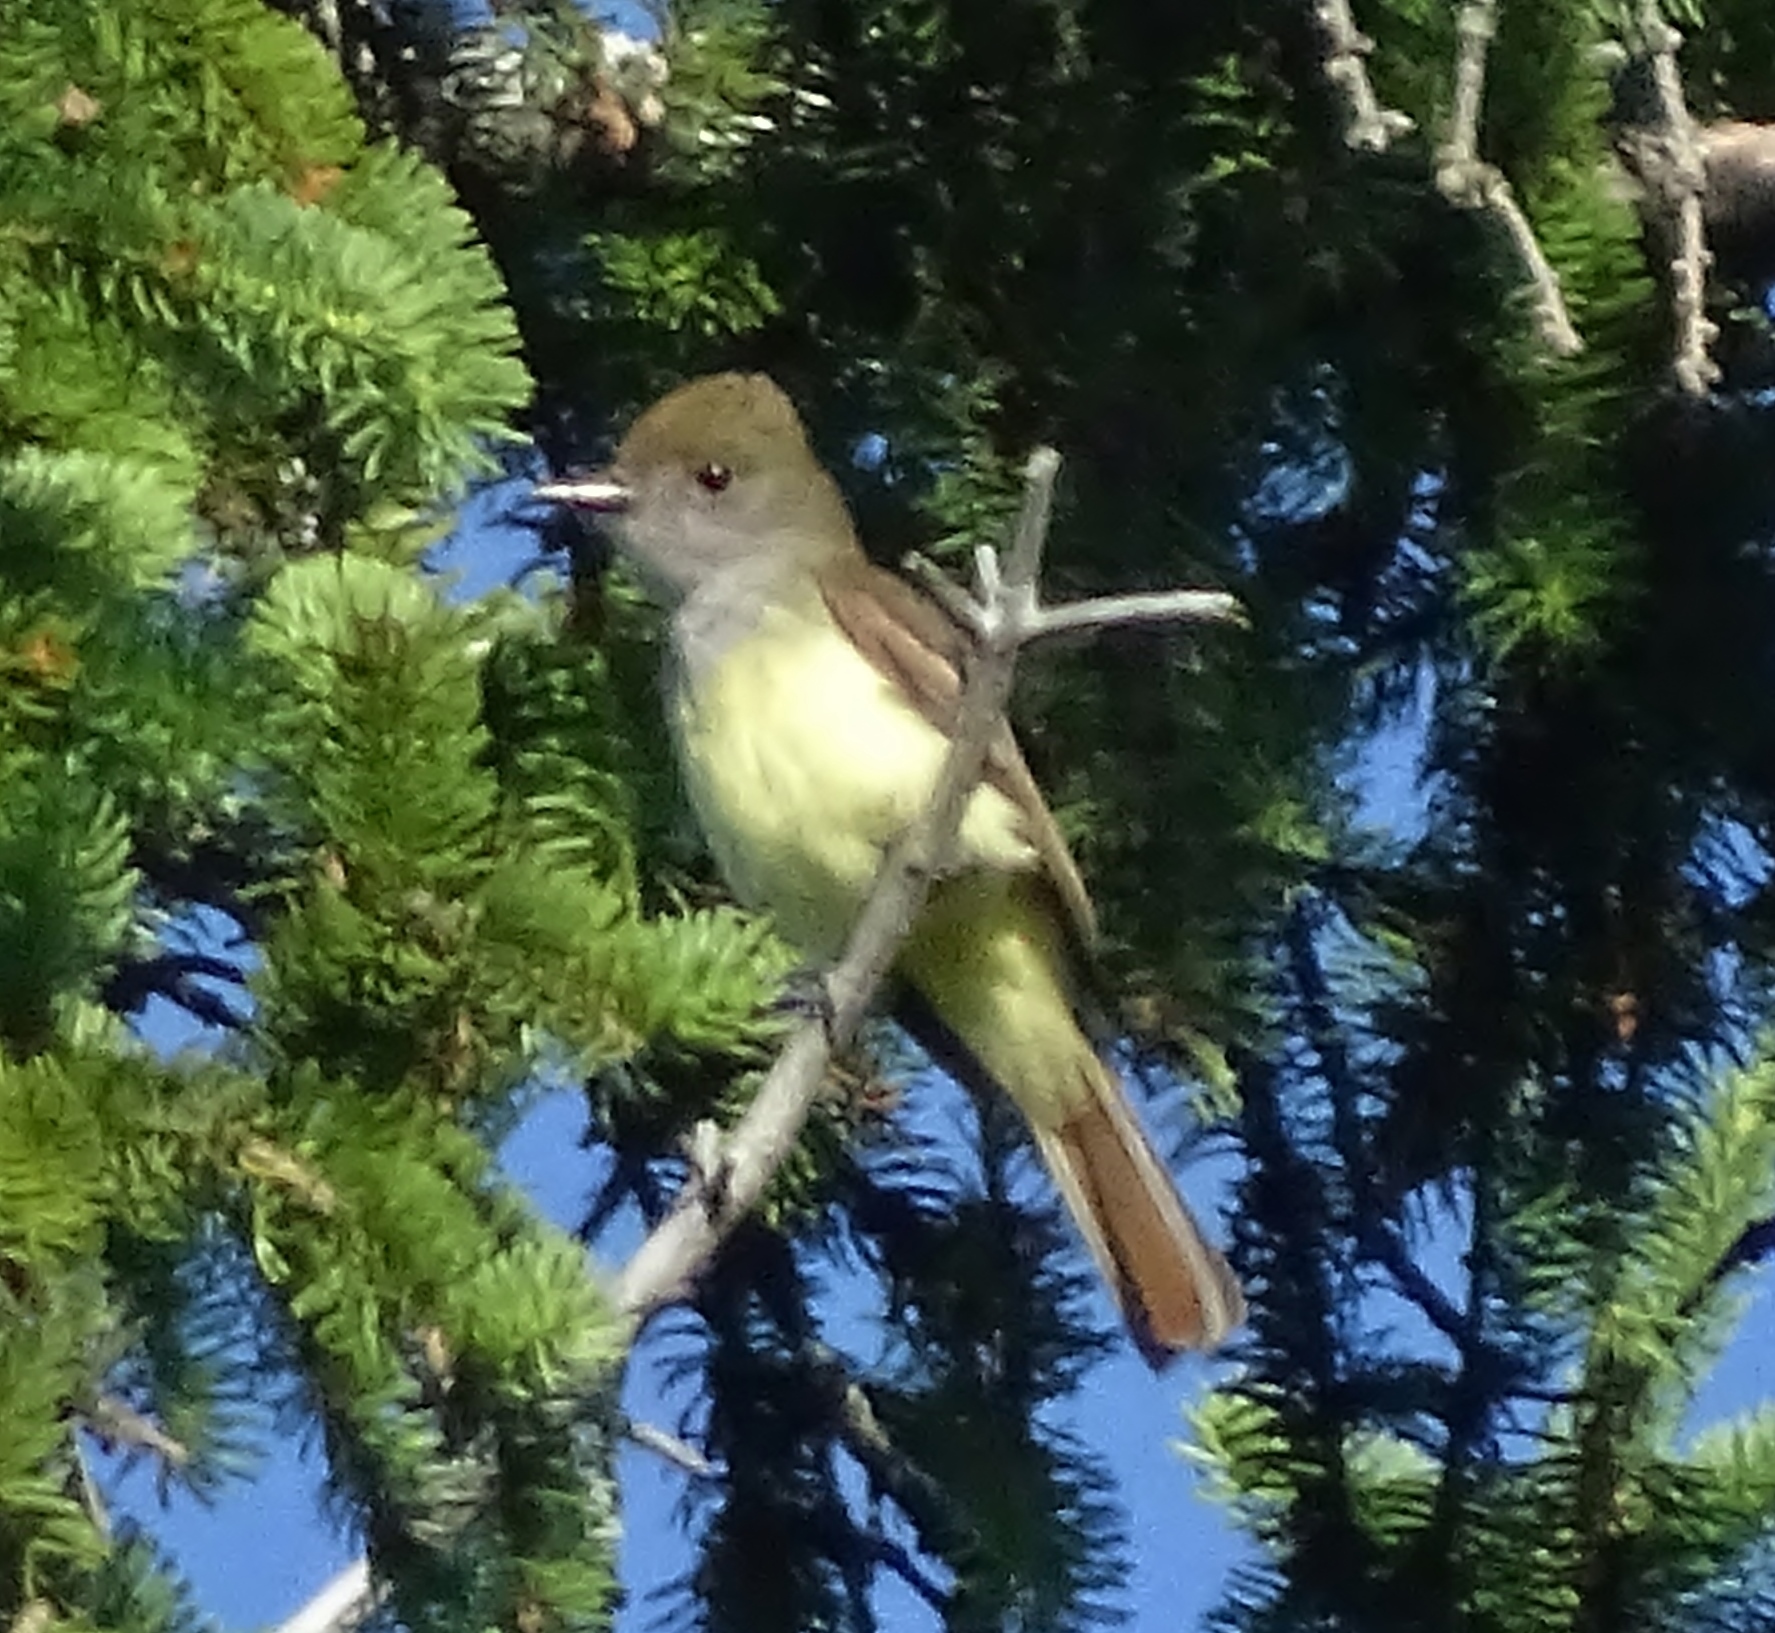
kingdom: Animalia
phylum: Chordata
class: Aves
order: Passeriformes
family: Tyrannidae
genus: Myiarchus
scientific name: Myiarchus crinitus
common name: Great crested flycatcher
